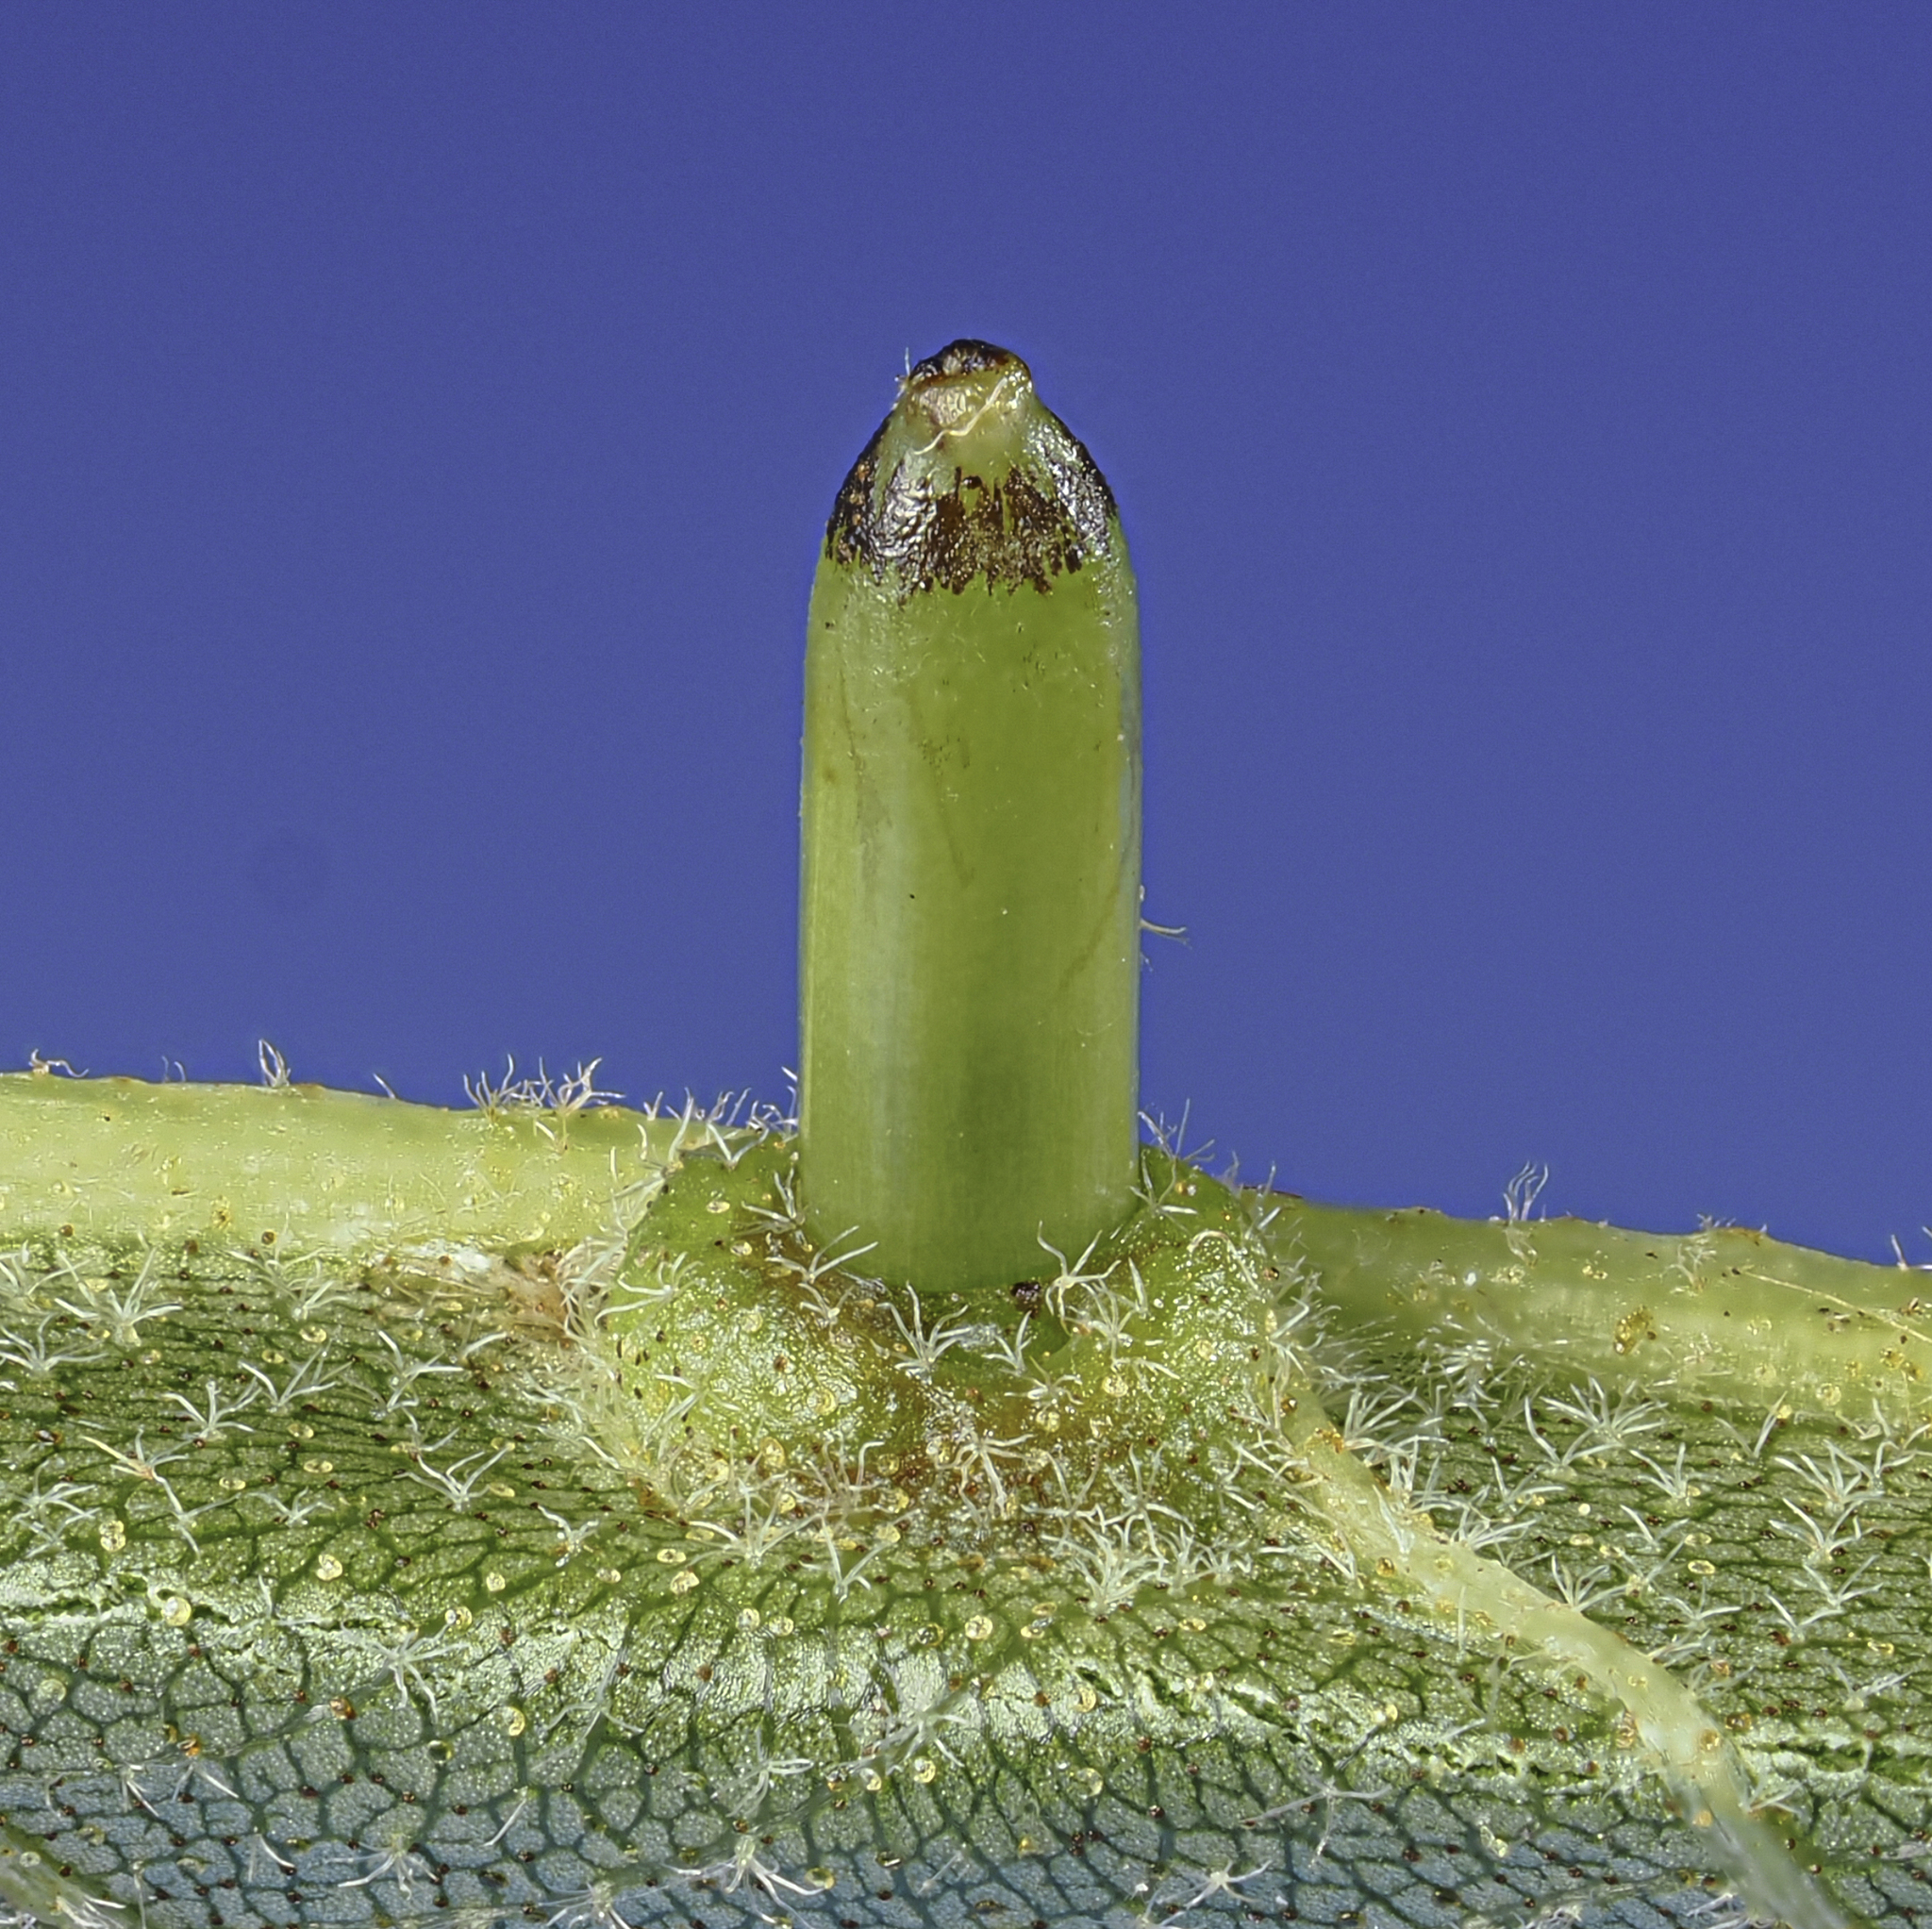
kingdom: Animalia
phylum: Arthropoda
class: Insecta
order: Diptera
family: Cecidomyiidae
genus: Caryomyia
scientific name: Caryomyia tubicola
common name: Hickory bullet gall midge
